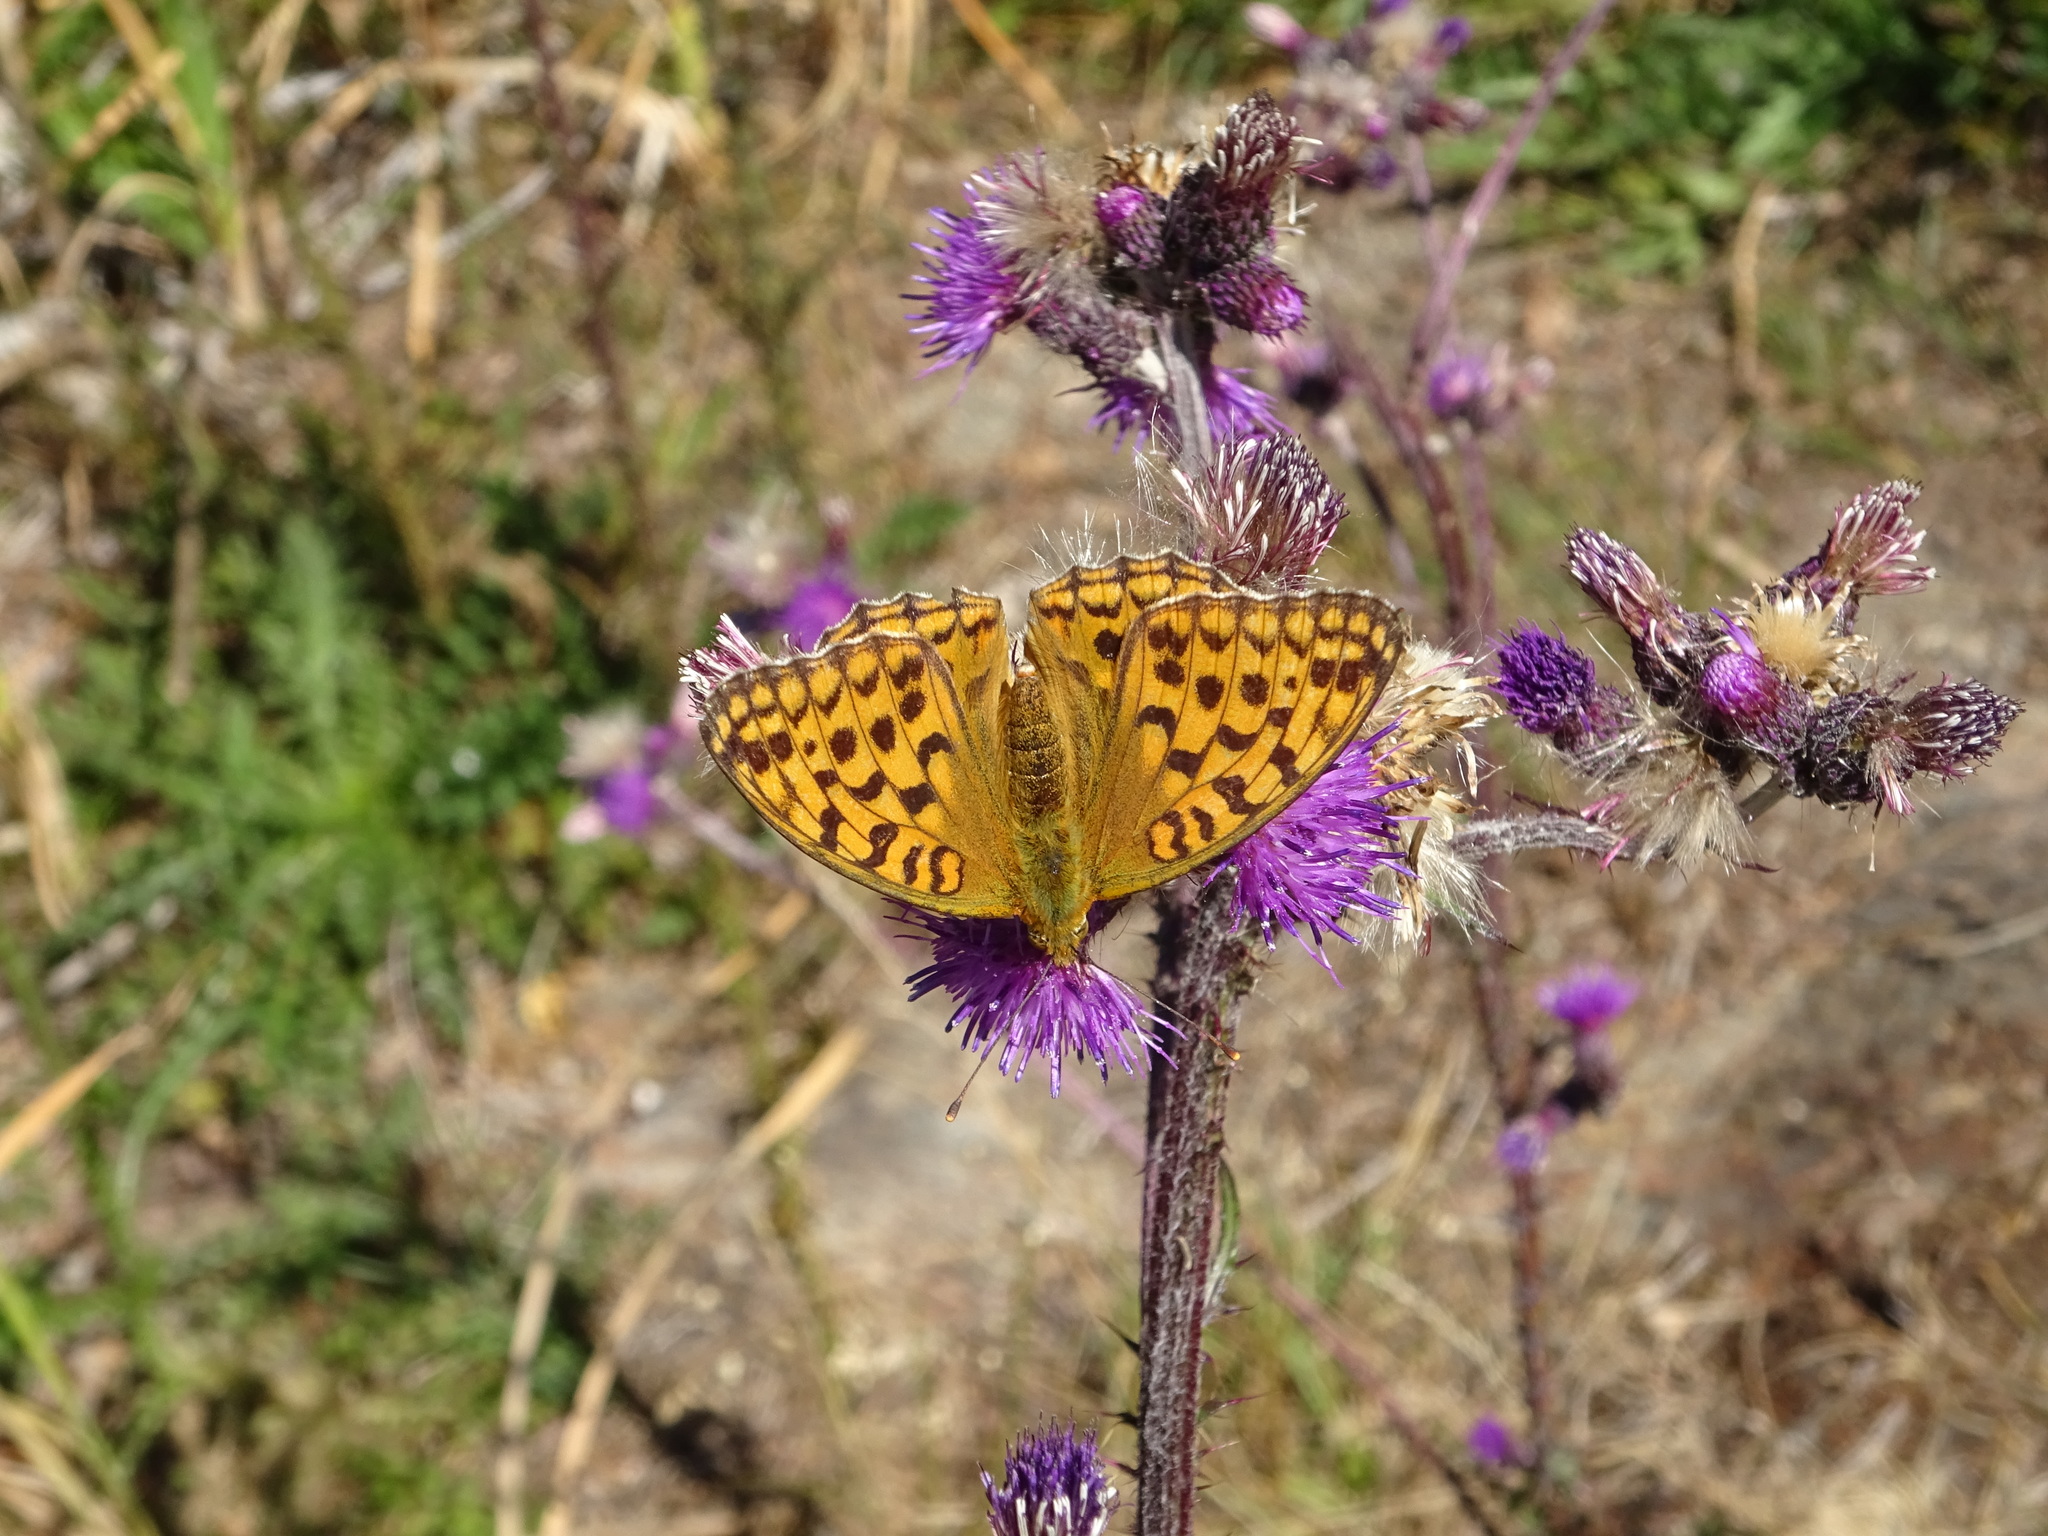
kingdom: Animalia
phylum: Arthropoda
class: Insecta
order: Lepidoptera
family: Nymphalidae
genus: Fabriciana
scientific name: Fabriciana adippe
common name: High brown fritillary
